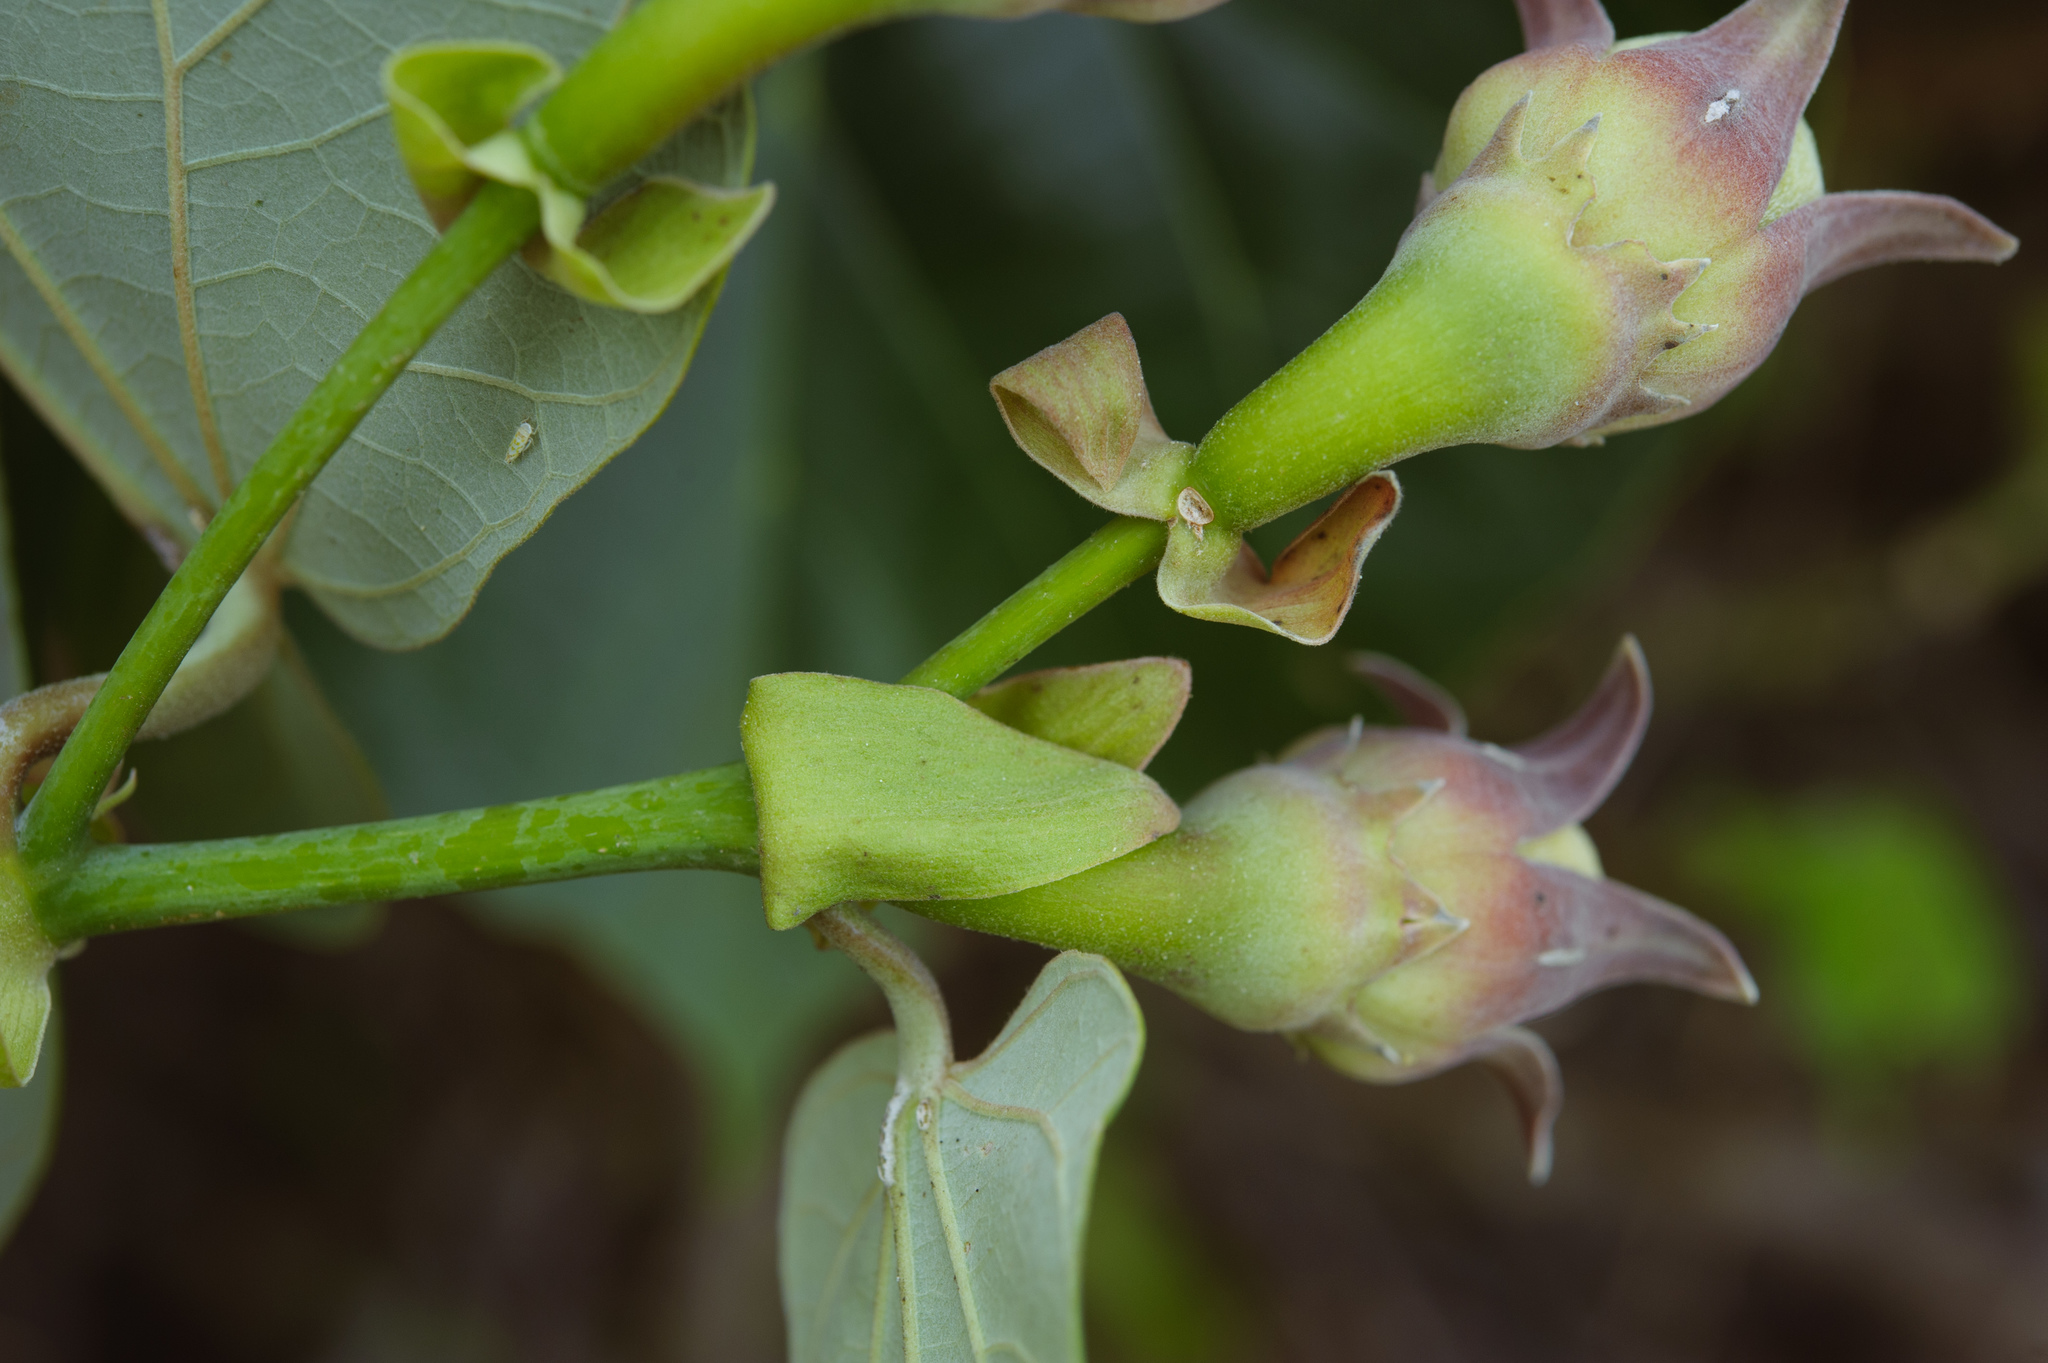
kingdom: Plantae
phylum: Tracheophyta
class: Magnoliopsida
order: Malvales
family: Malvaceae
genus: Talipariti
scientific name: Talipariti tiliaceum
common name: Sea hibiscus
